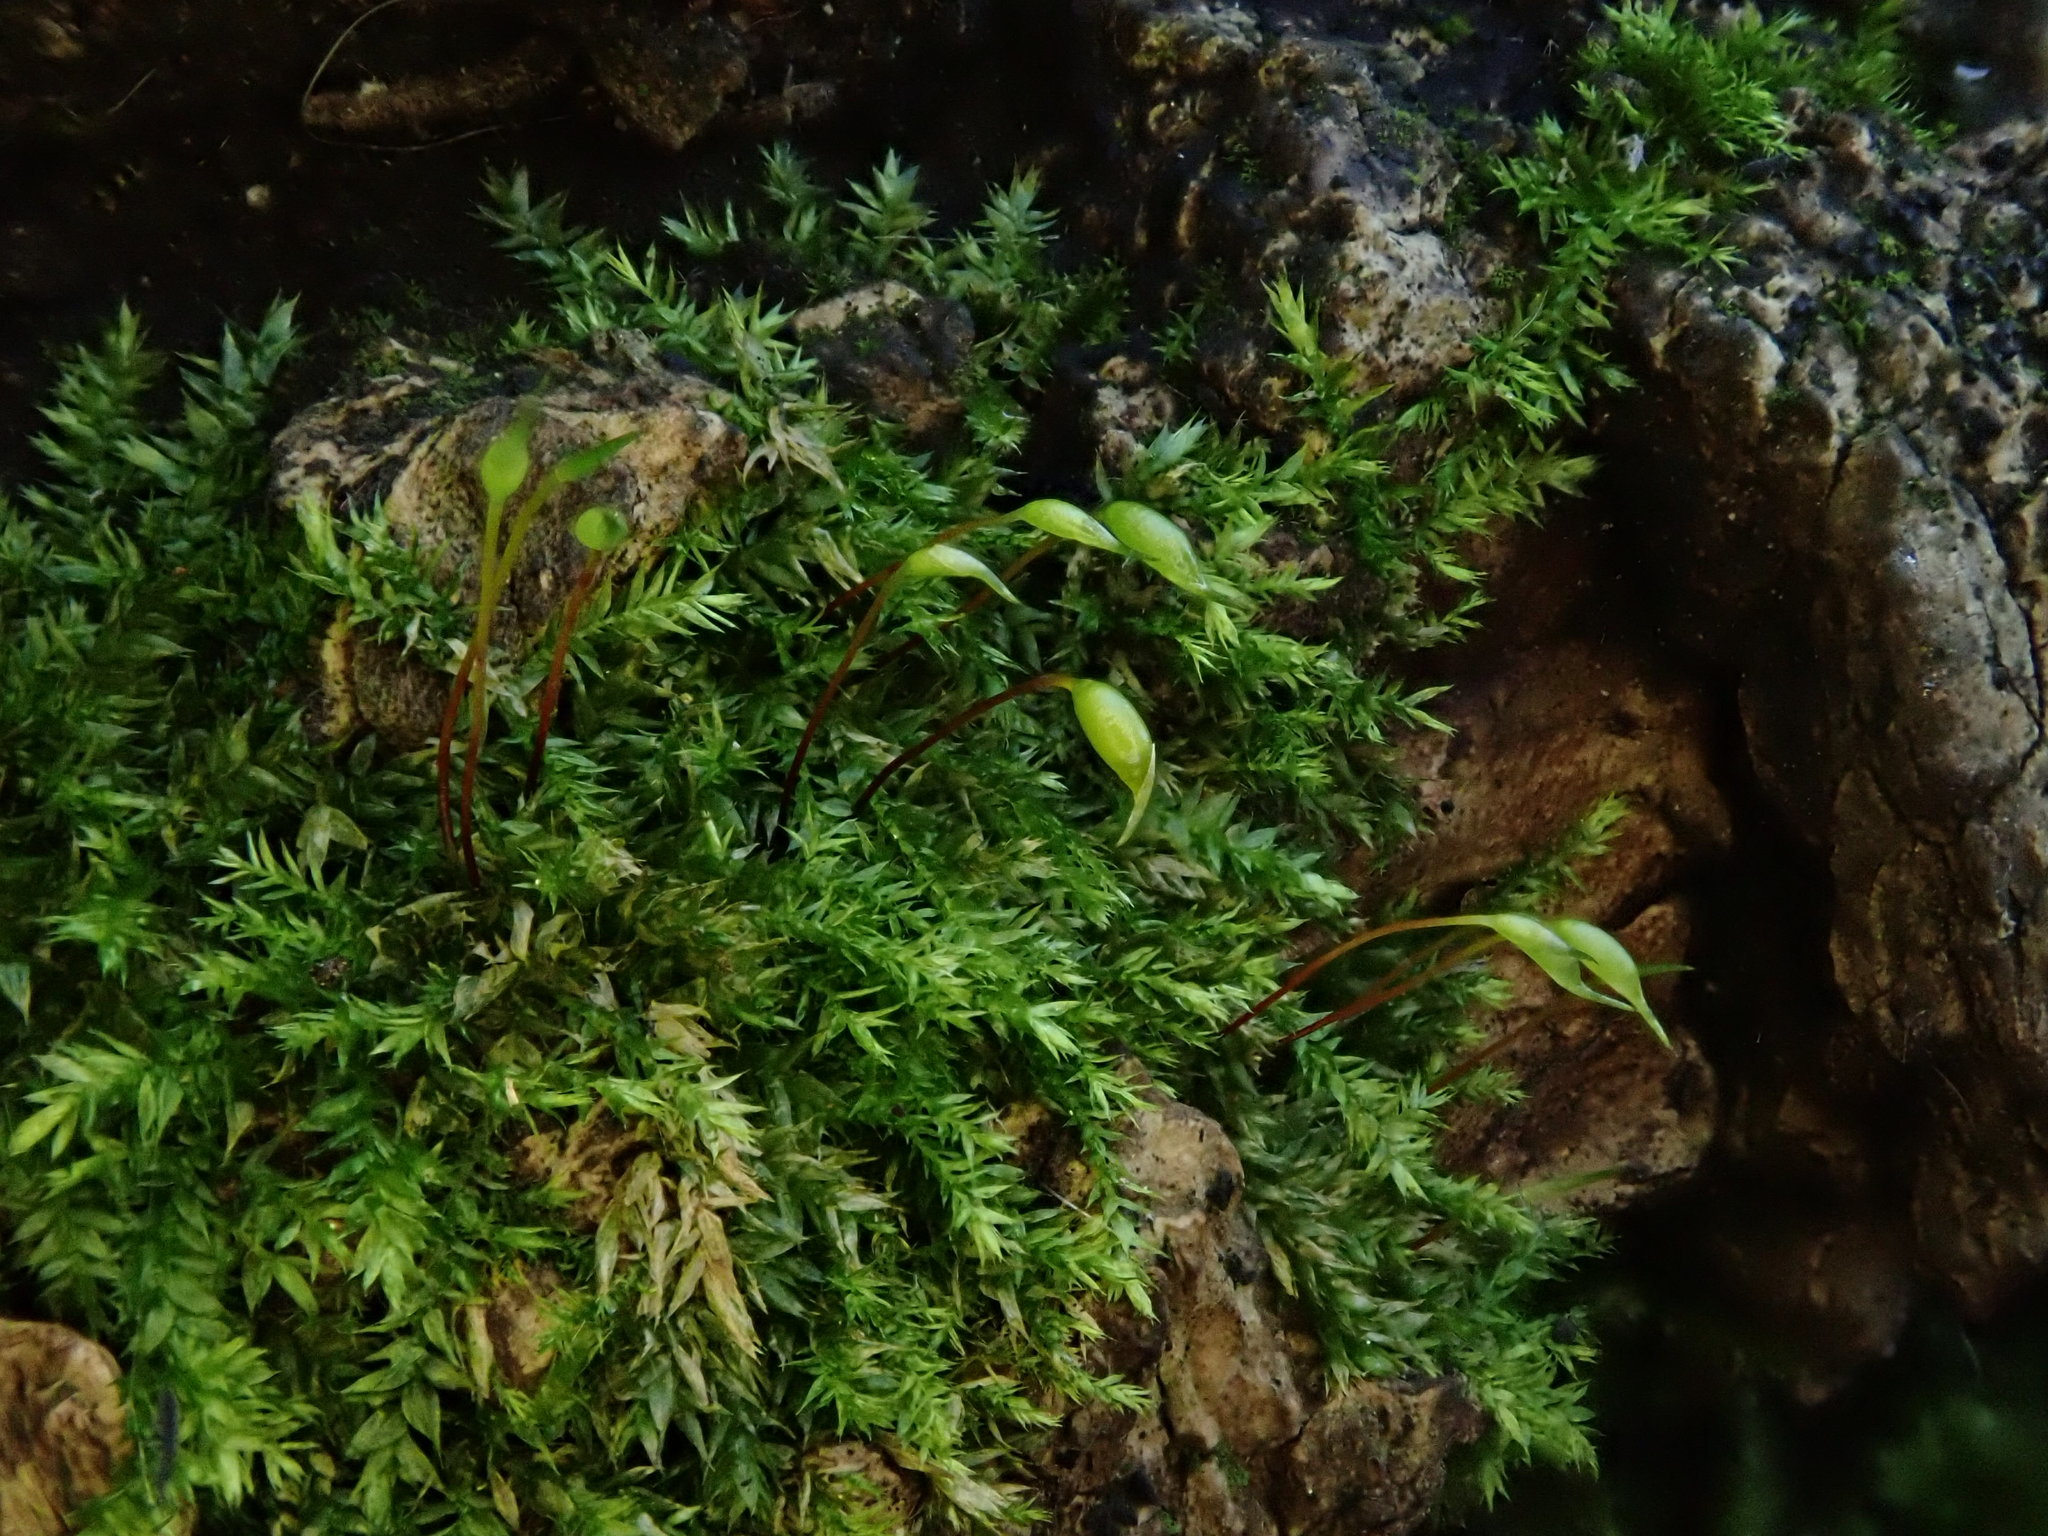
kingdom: Plantae
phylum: Bryophyta
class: Bryopsida
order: Hypnales
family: Brachytheciaceae
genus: Rhynchostegium
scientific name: Rhynchostegium confertum
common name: Clustered feather-moss
